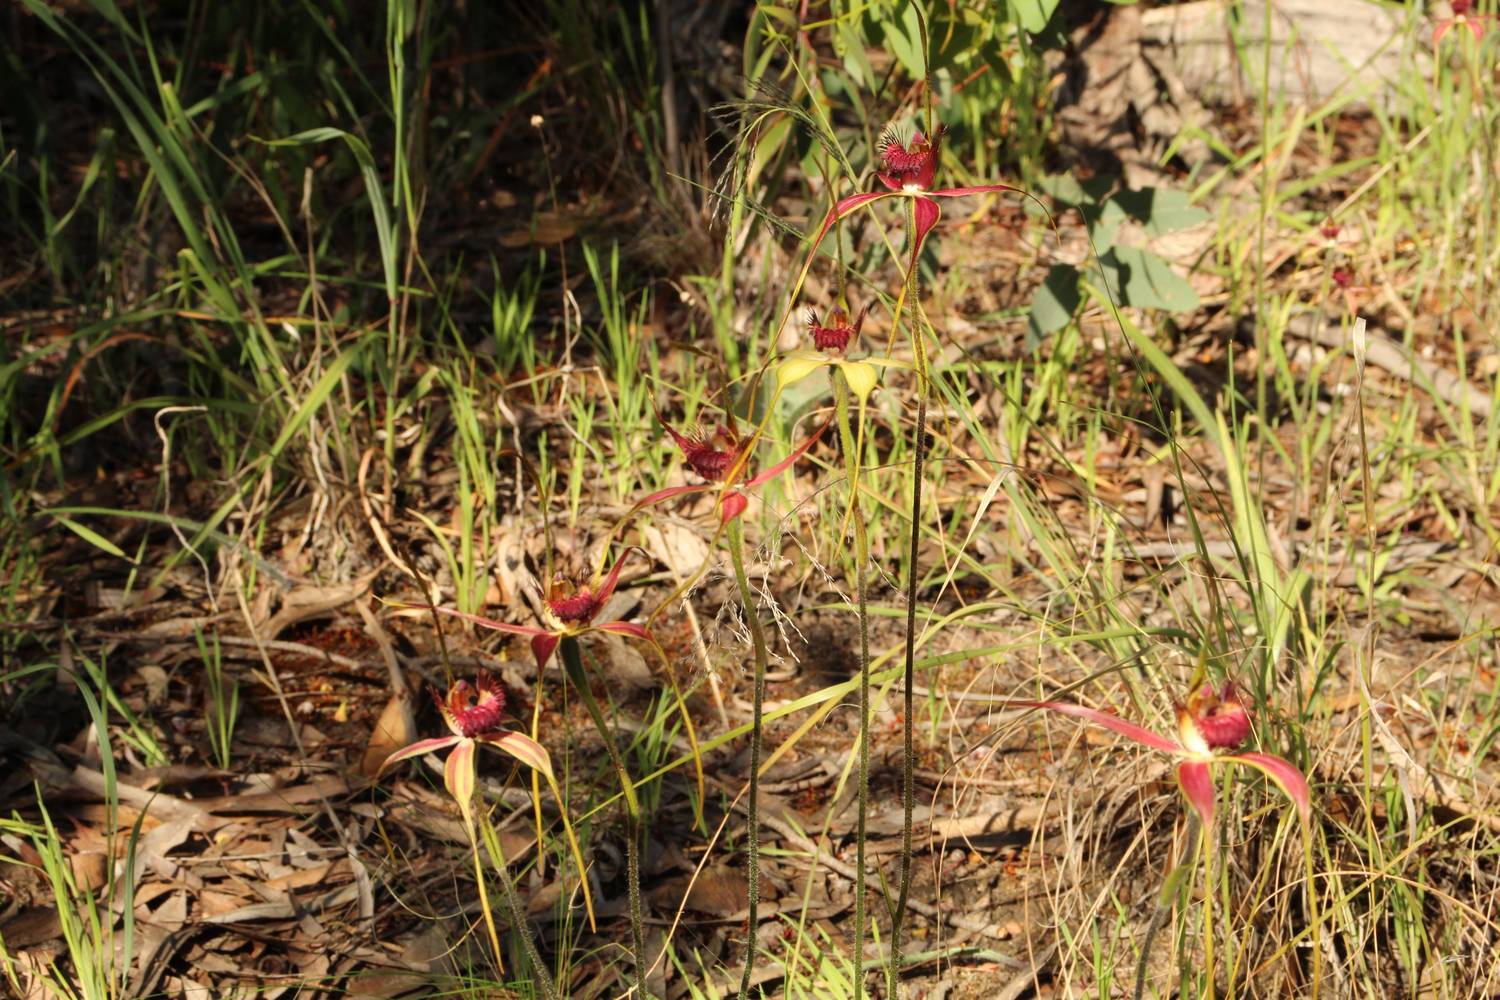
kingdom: Plantae
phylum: Tracheophyta
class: Liliopsida
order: Asparagales
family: Orchidaceae
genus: Caladenia
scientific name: Caladenia decora
